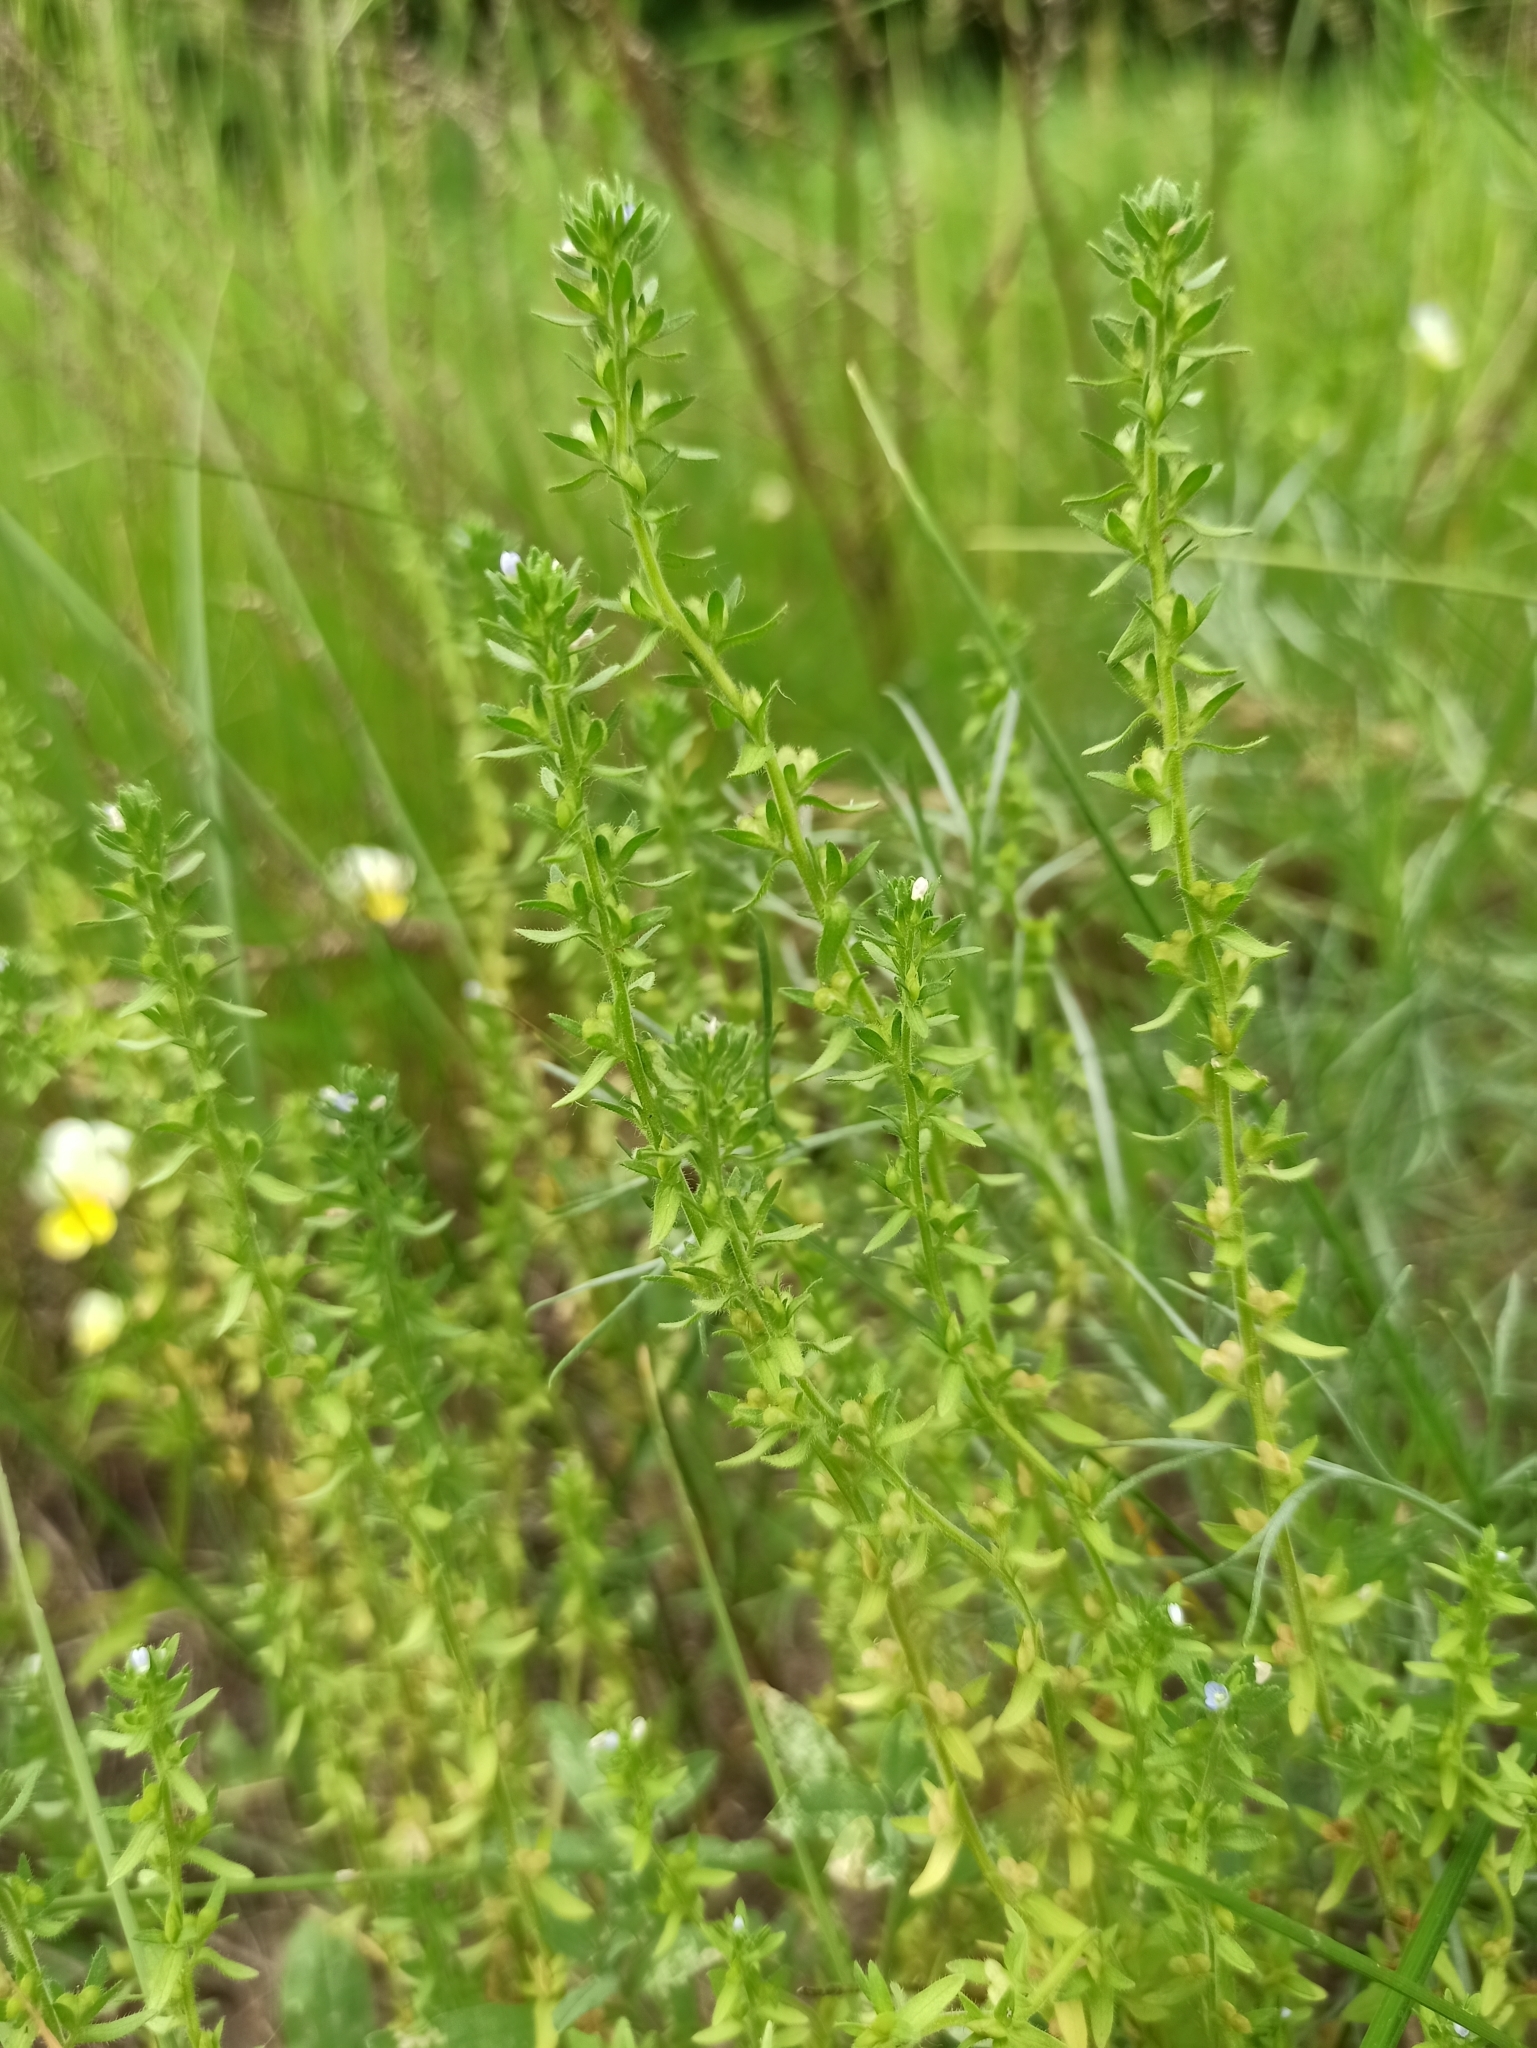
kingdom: Plantae
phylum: Tracheophyta
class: Magnoliopsida
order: Lamiales
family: Plantaginaceae
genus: Veronica
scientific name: Veronica arvensis
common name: Corn speedwell
